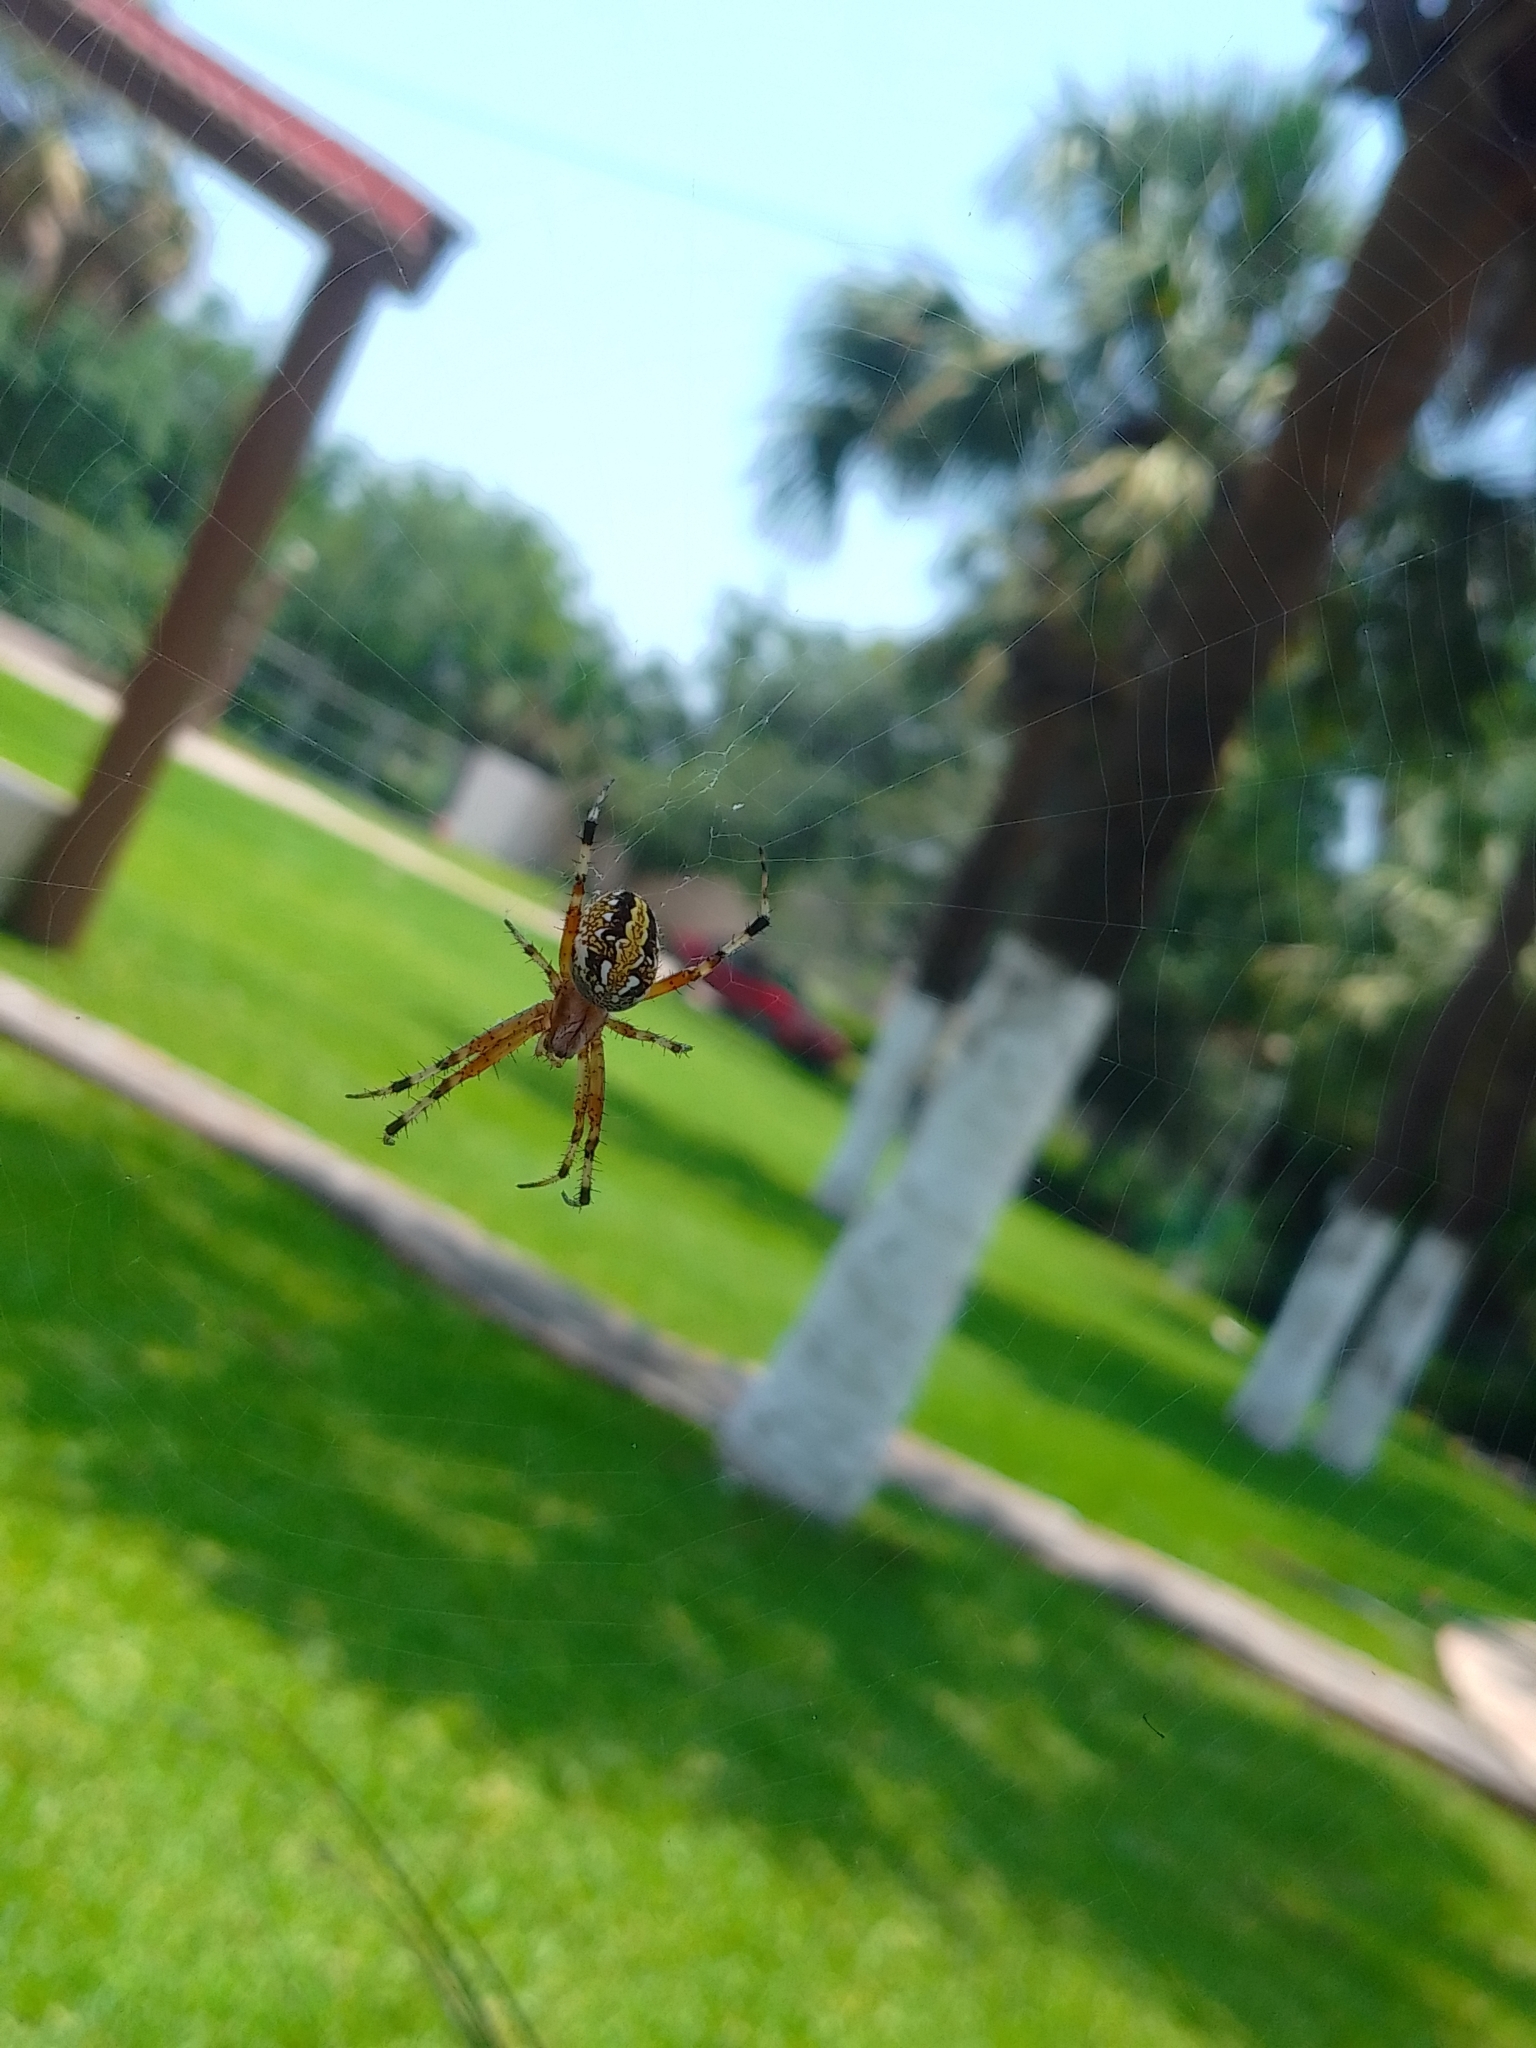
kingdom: Animalia
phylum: Arthropoda
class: Arachnida
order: Araneae
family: Araneidae
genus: Neoscona
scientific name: Neoscona oaxacensis
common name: Orb weavers
